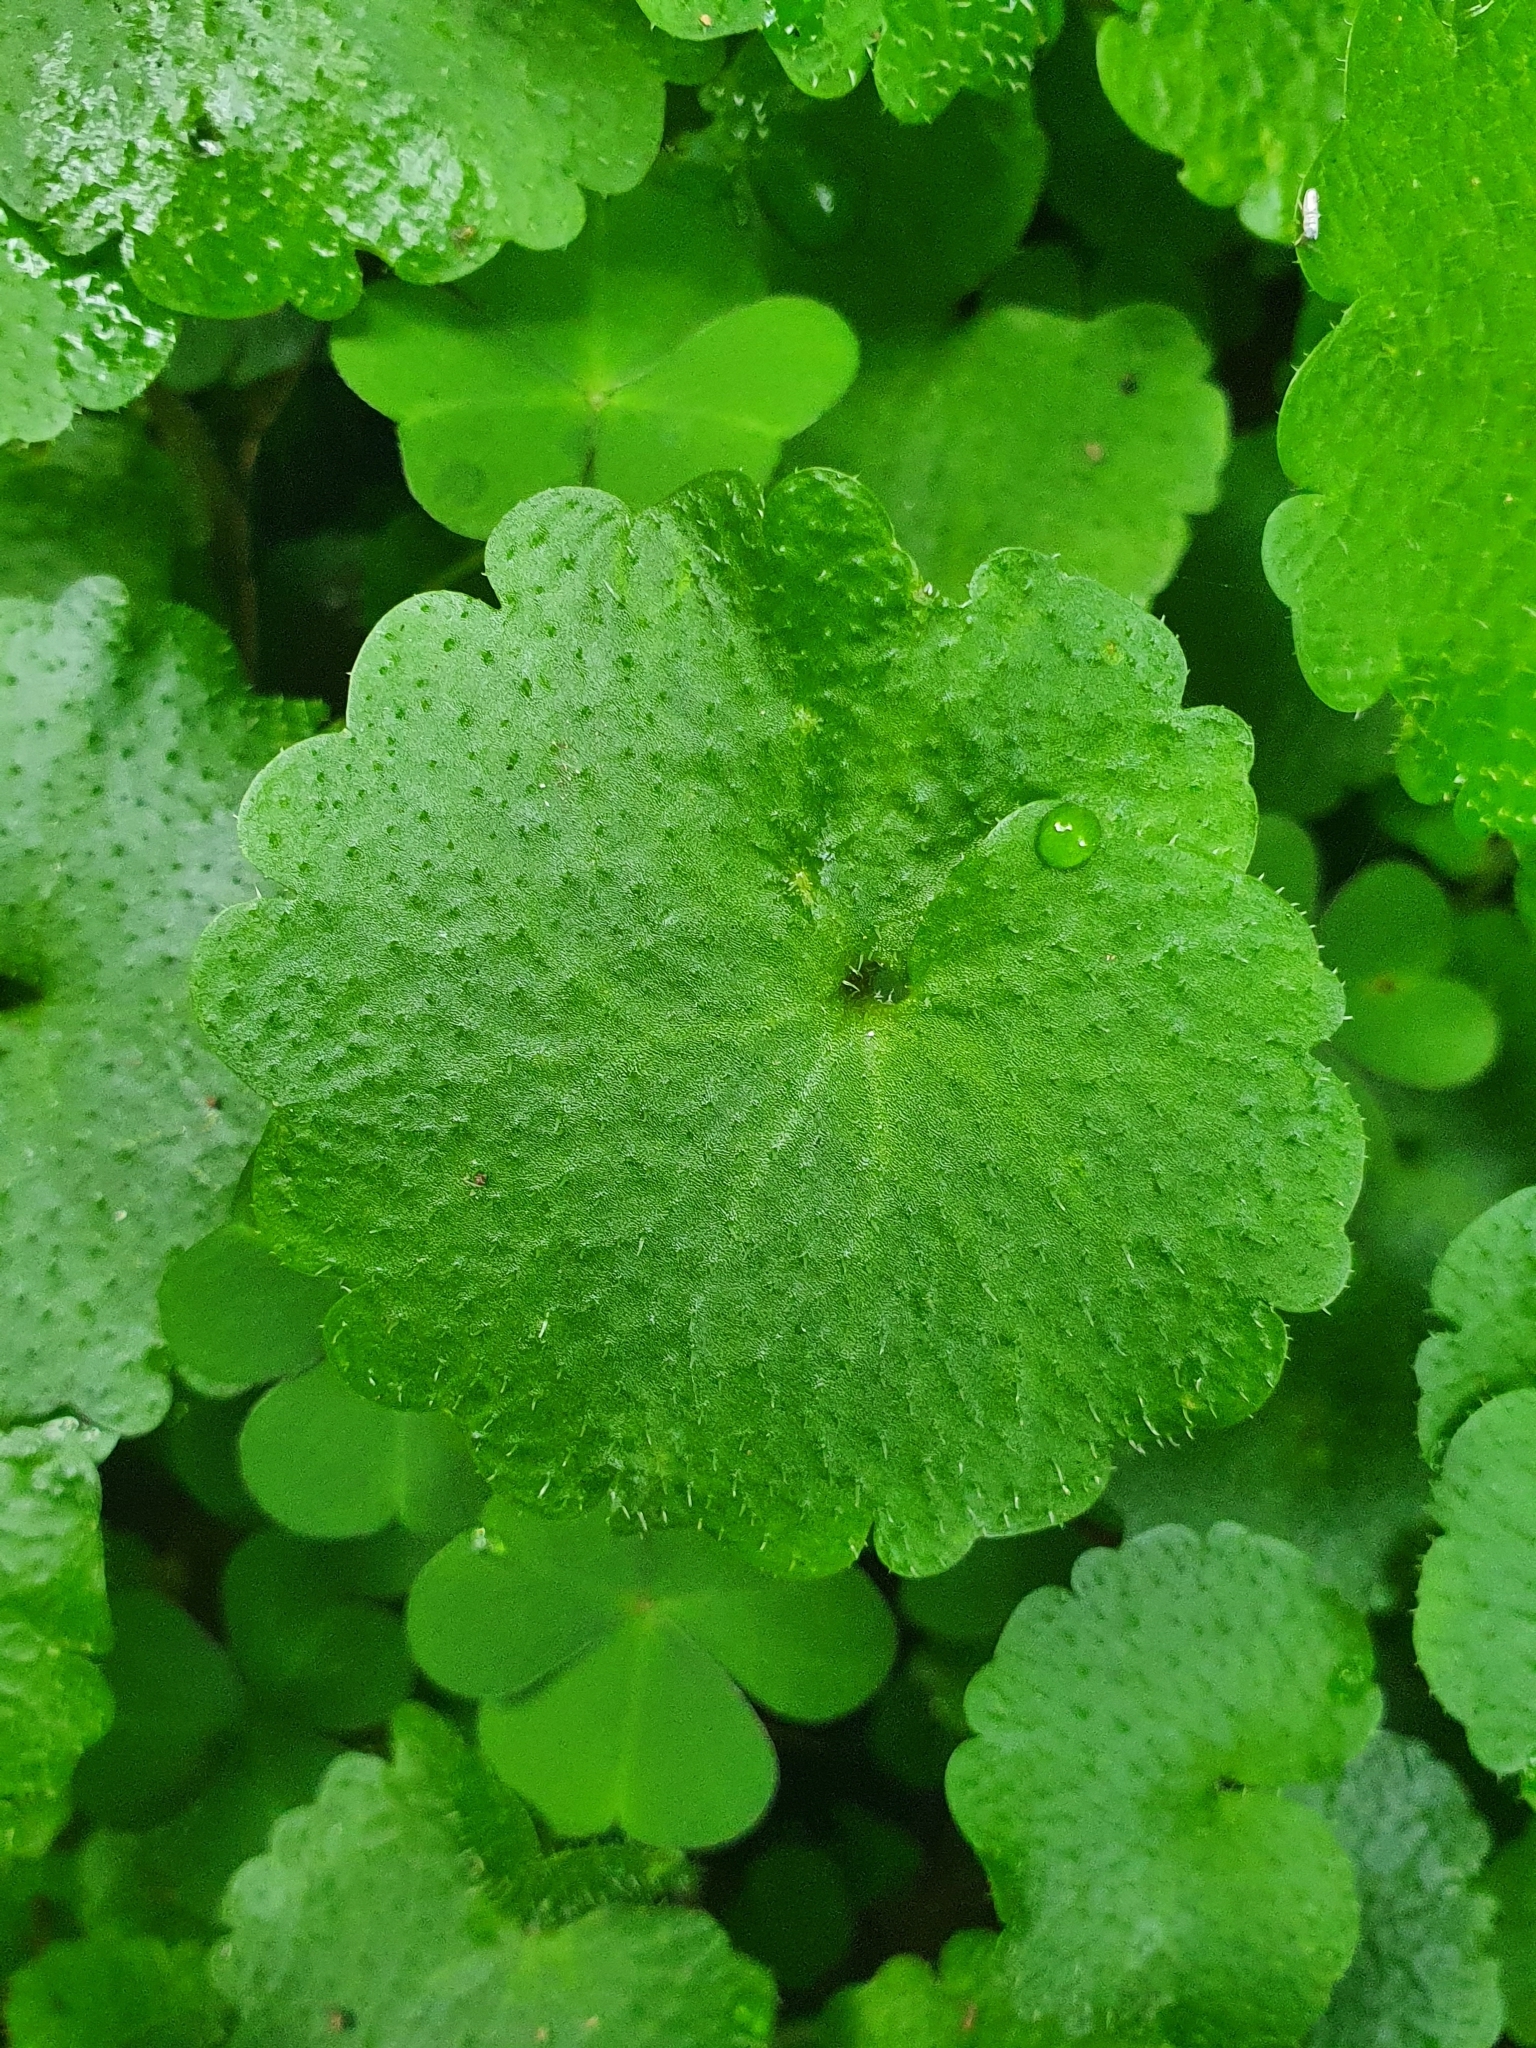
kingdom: Plantae
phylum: Tracheophyta
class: Magnoliopsida
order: Saxifragales
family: Saxifragaceae
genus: Chrysosplenium
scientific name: Chrysosplenium alternifolium
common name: Alternate-leaved golden-saxifrage
